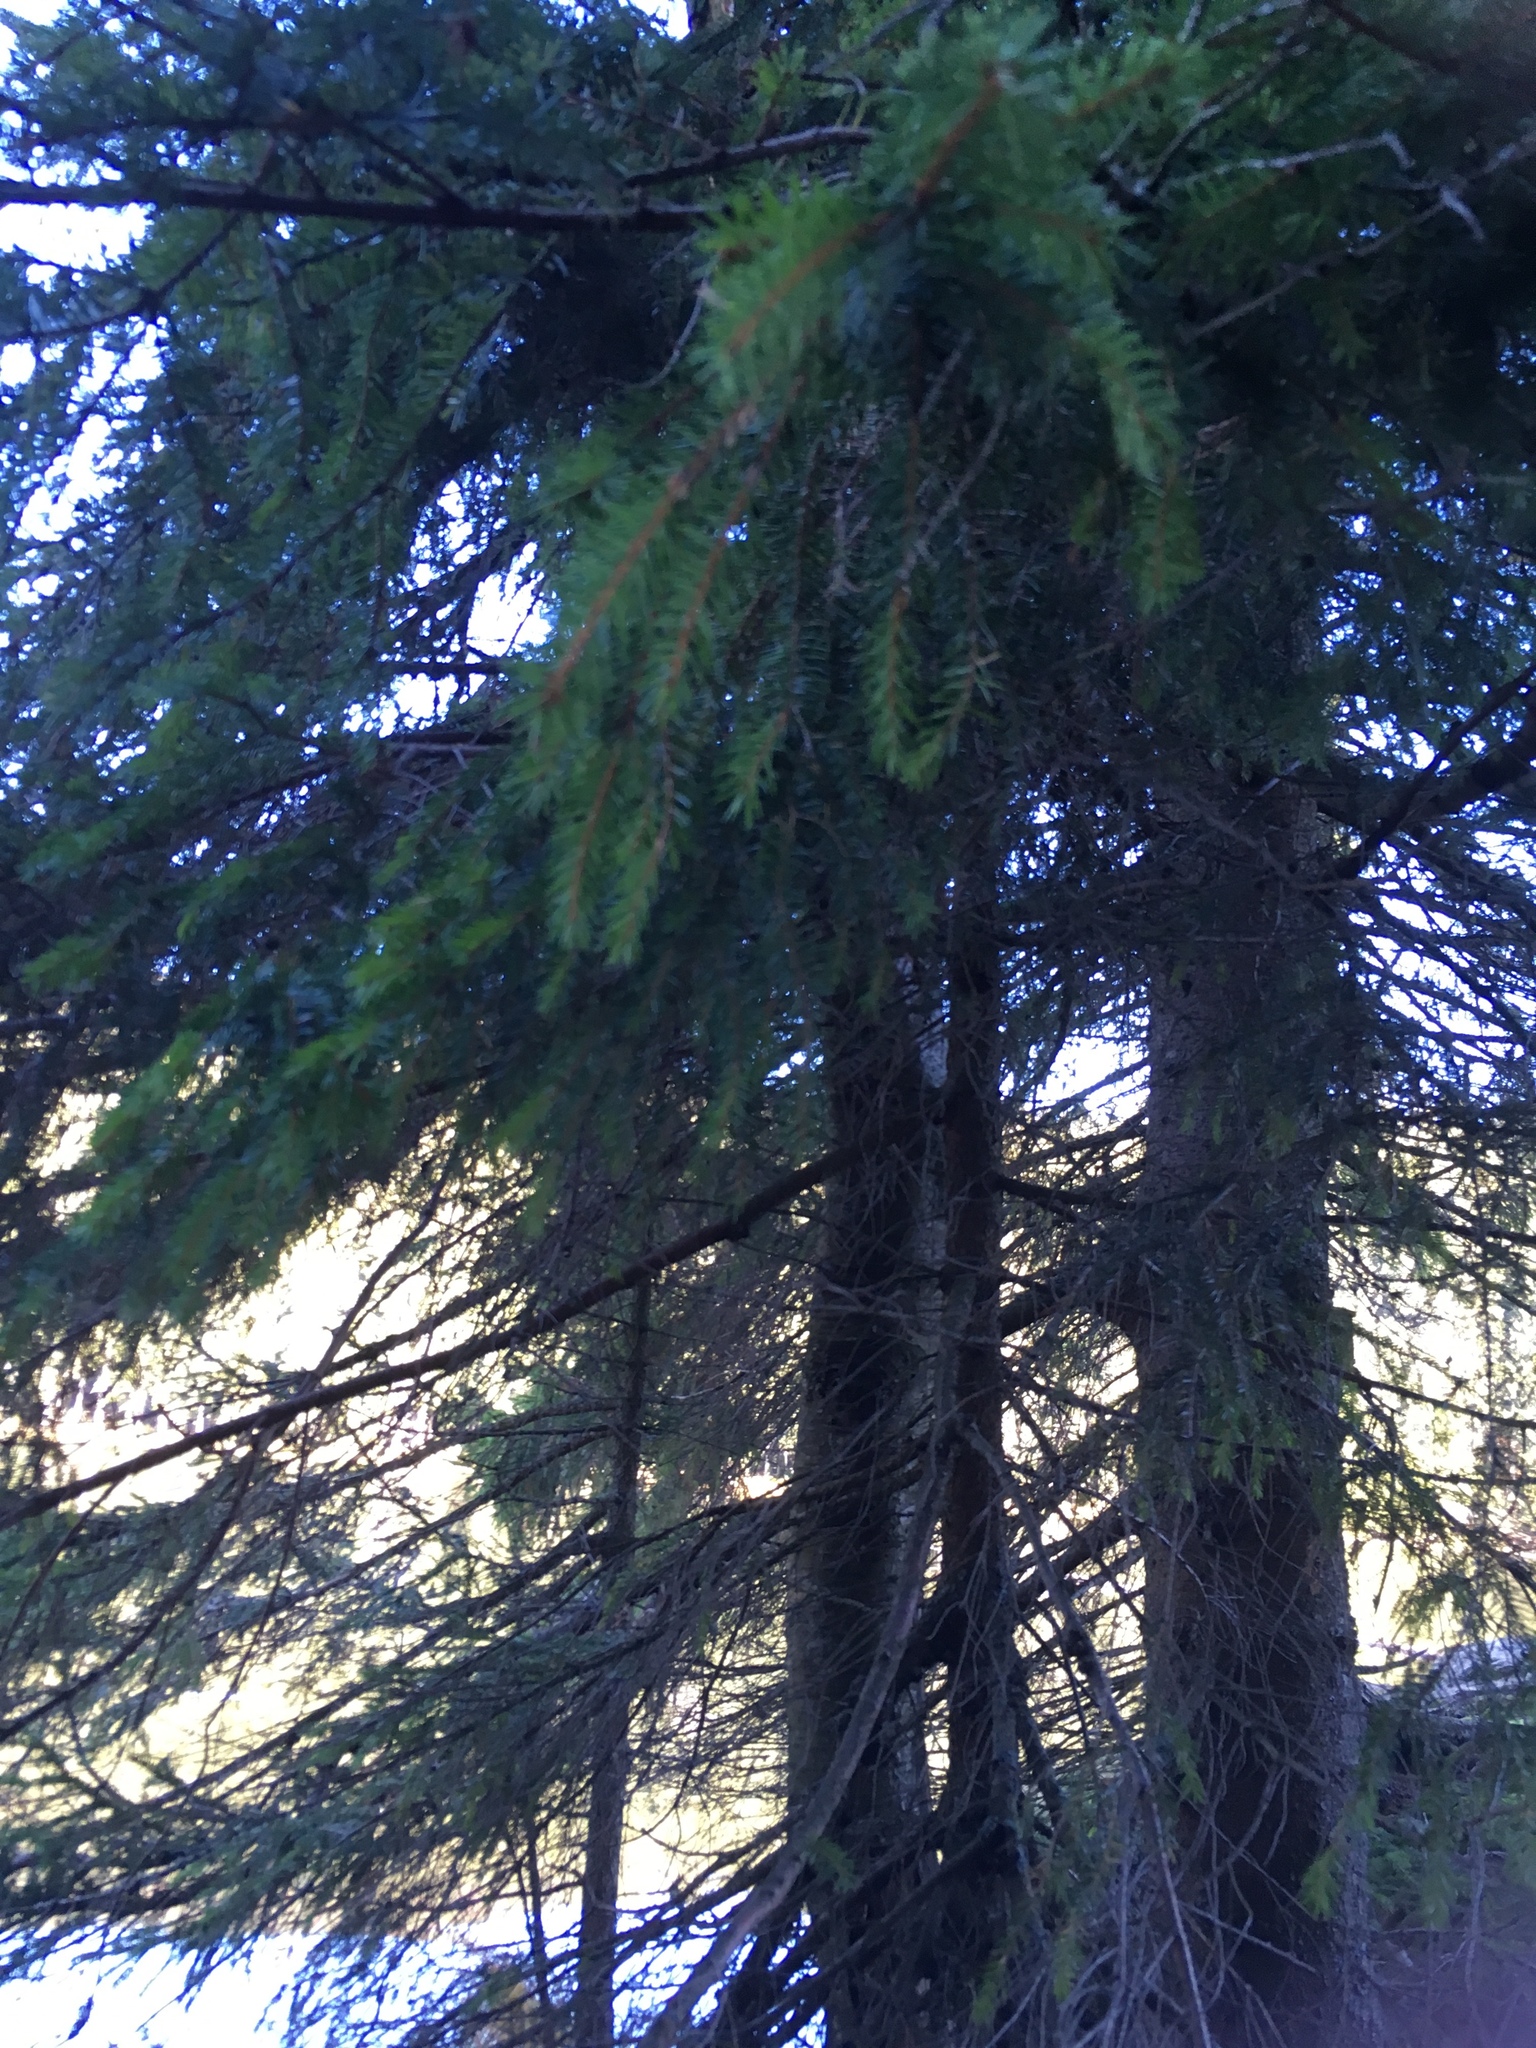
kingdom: Plantae
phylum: Tracheophyta
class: Pinopsida
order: Pinales
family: Pinaceae
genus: Picea
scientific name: Picea abies
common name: Norway spruce
